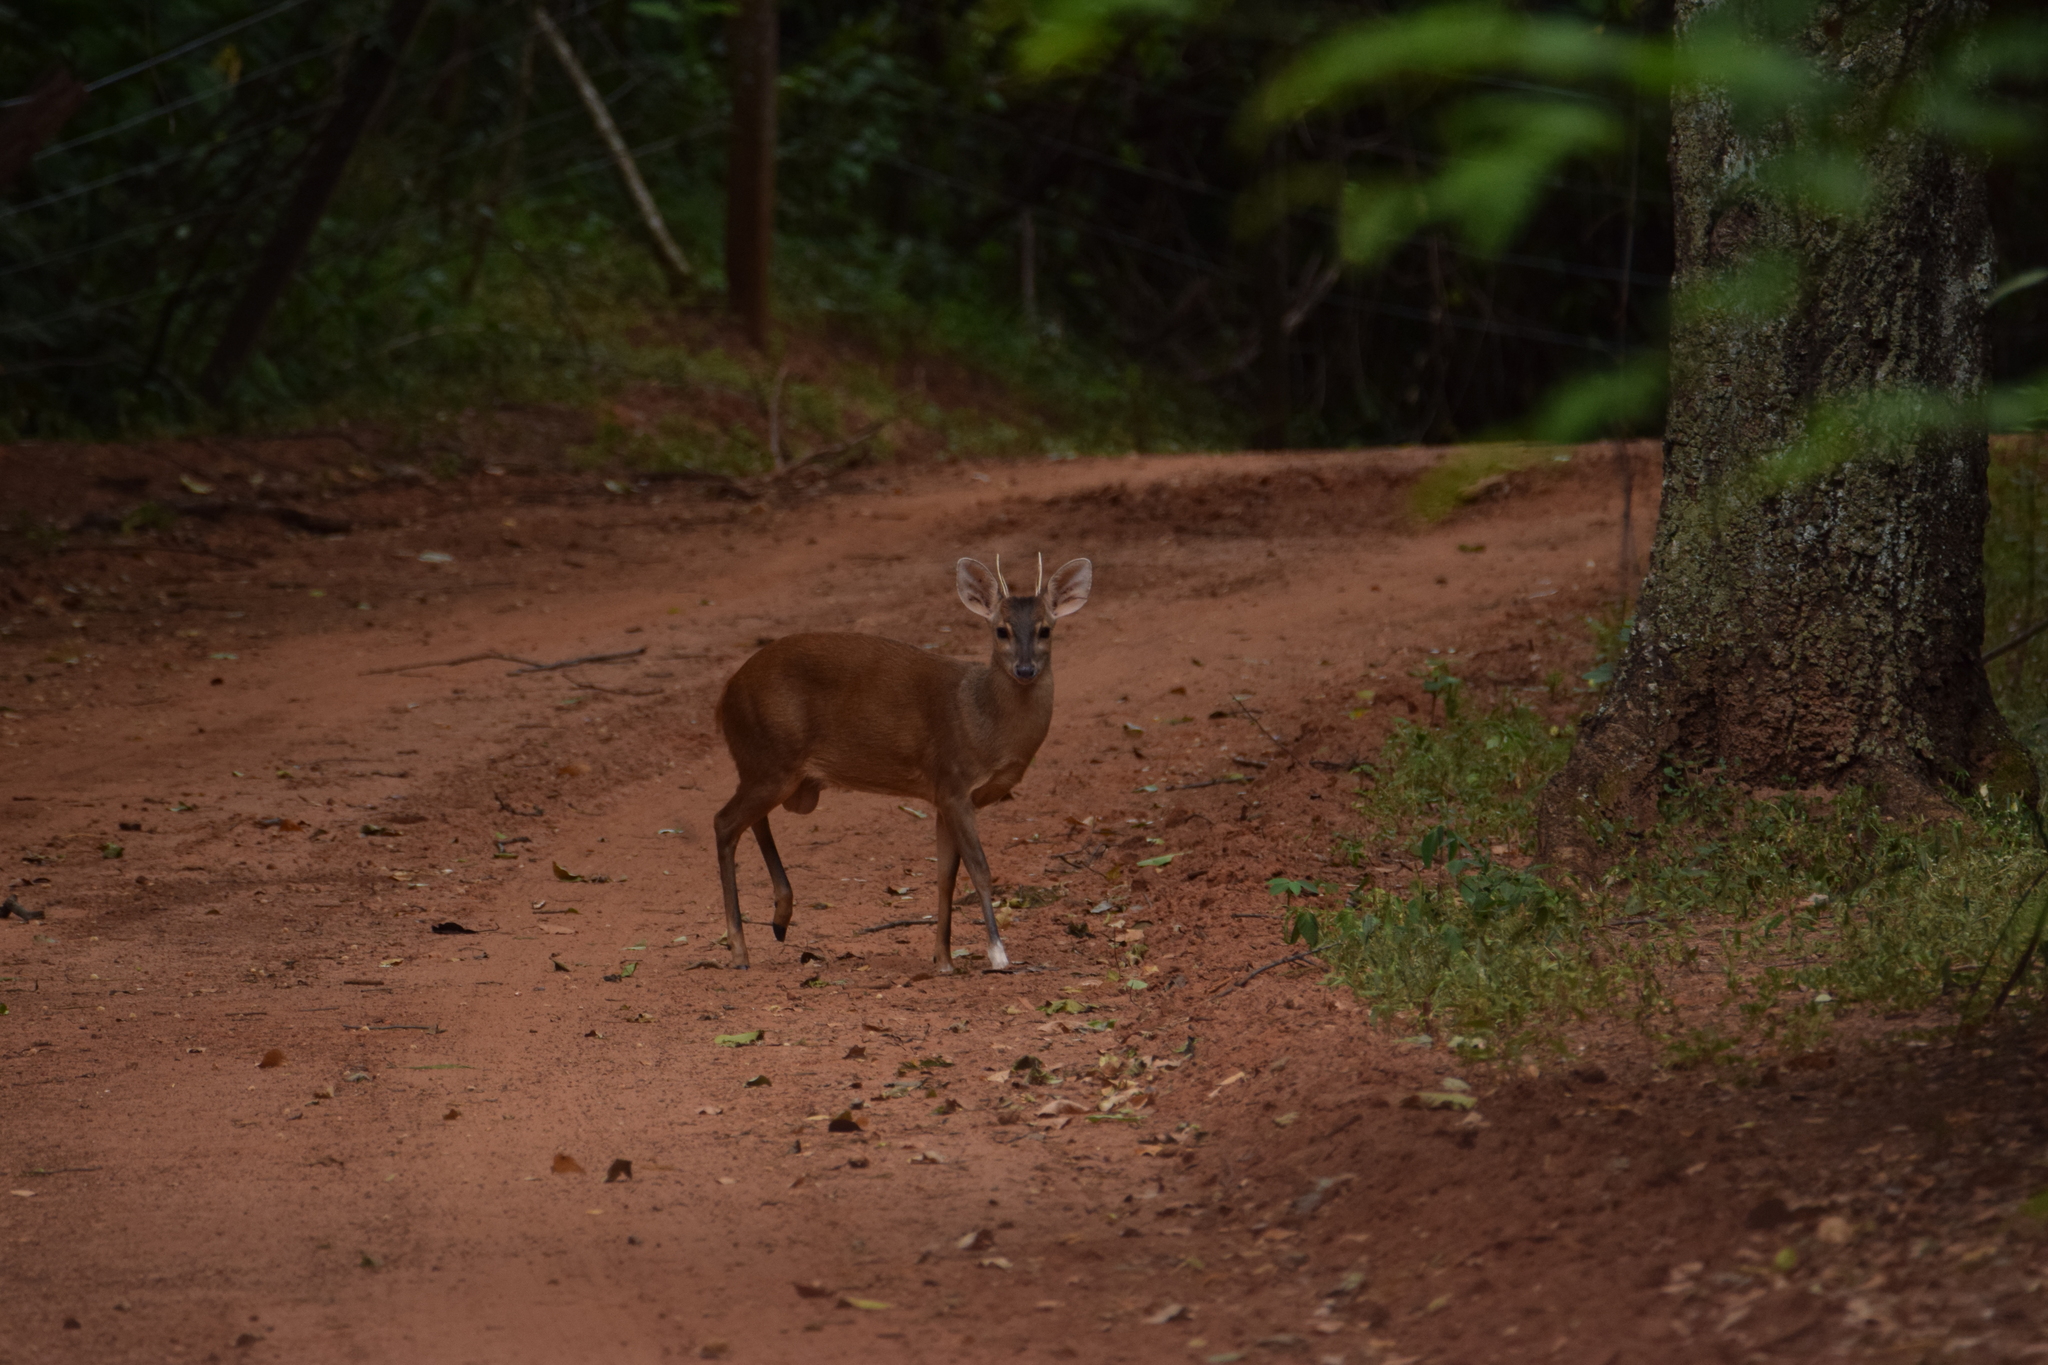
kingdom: Animalia
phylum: Chordata
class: Mammalia
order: Artiodactyla
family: Cervidae
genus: Mazama
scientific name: Mazama gouazoubira
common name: Gray brocket
